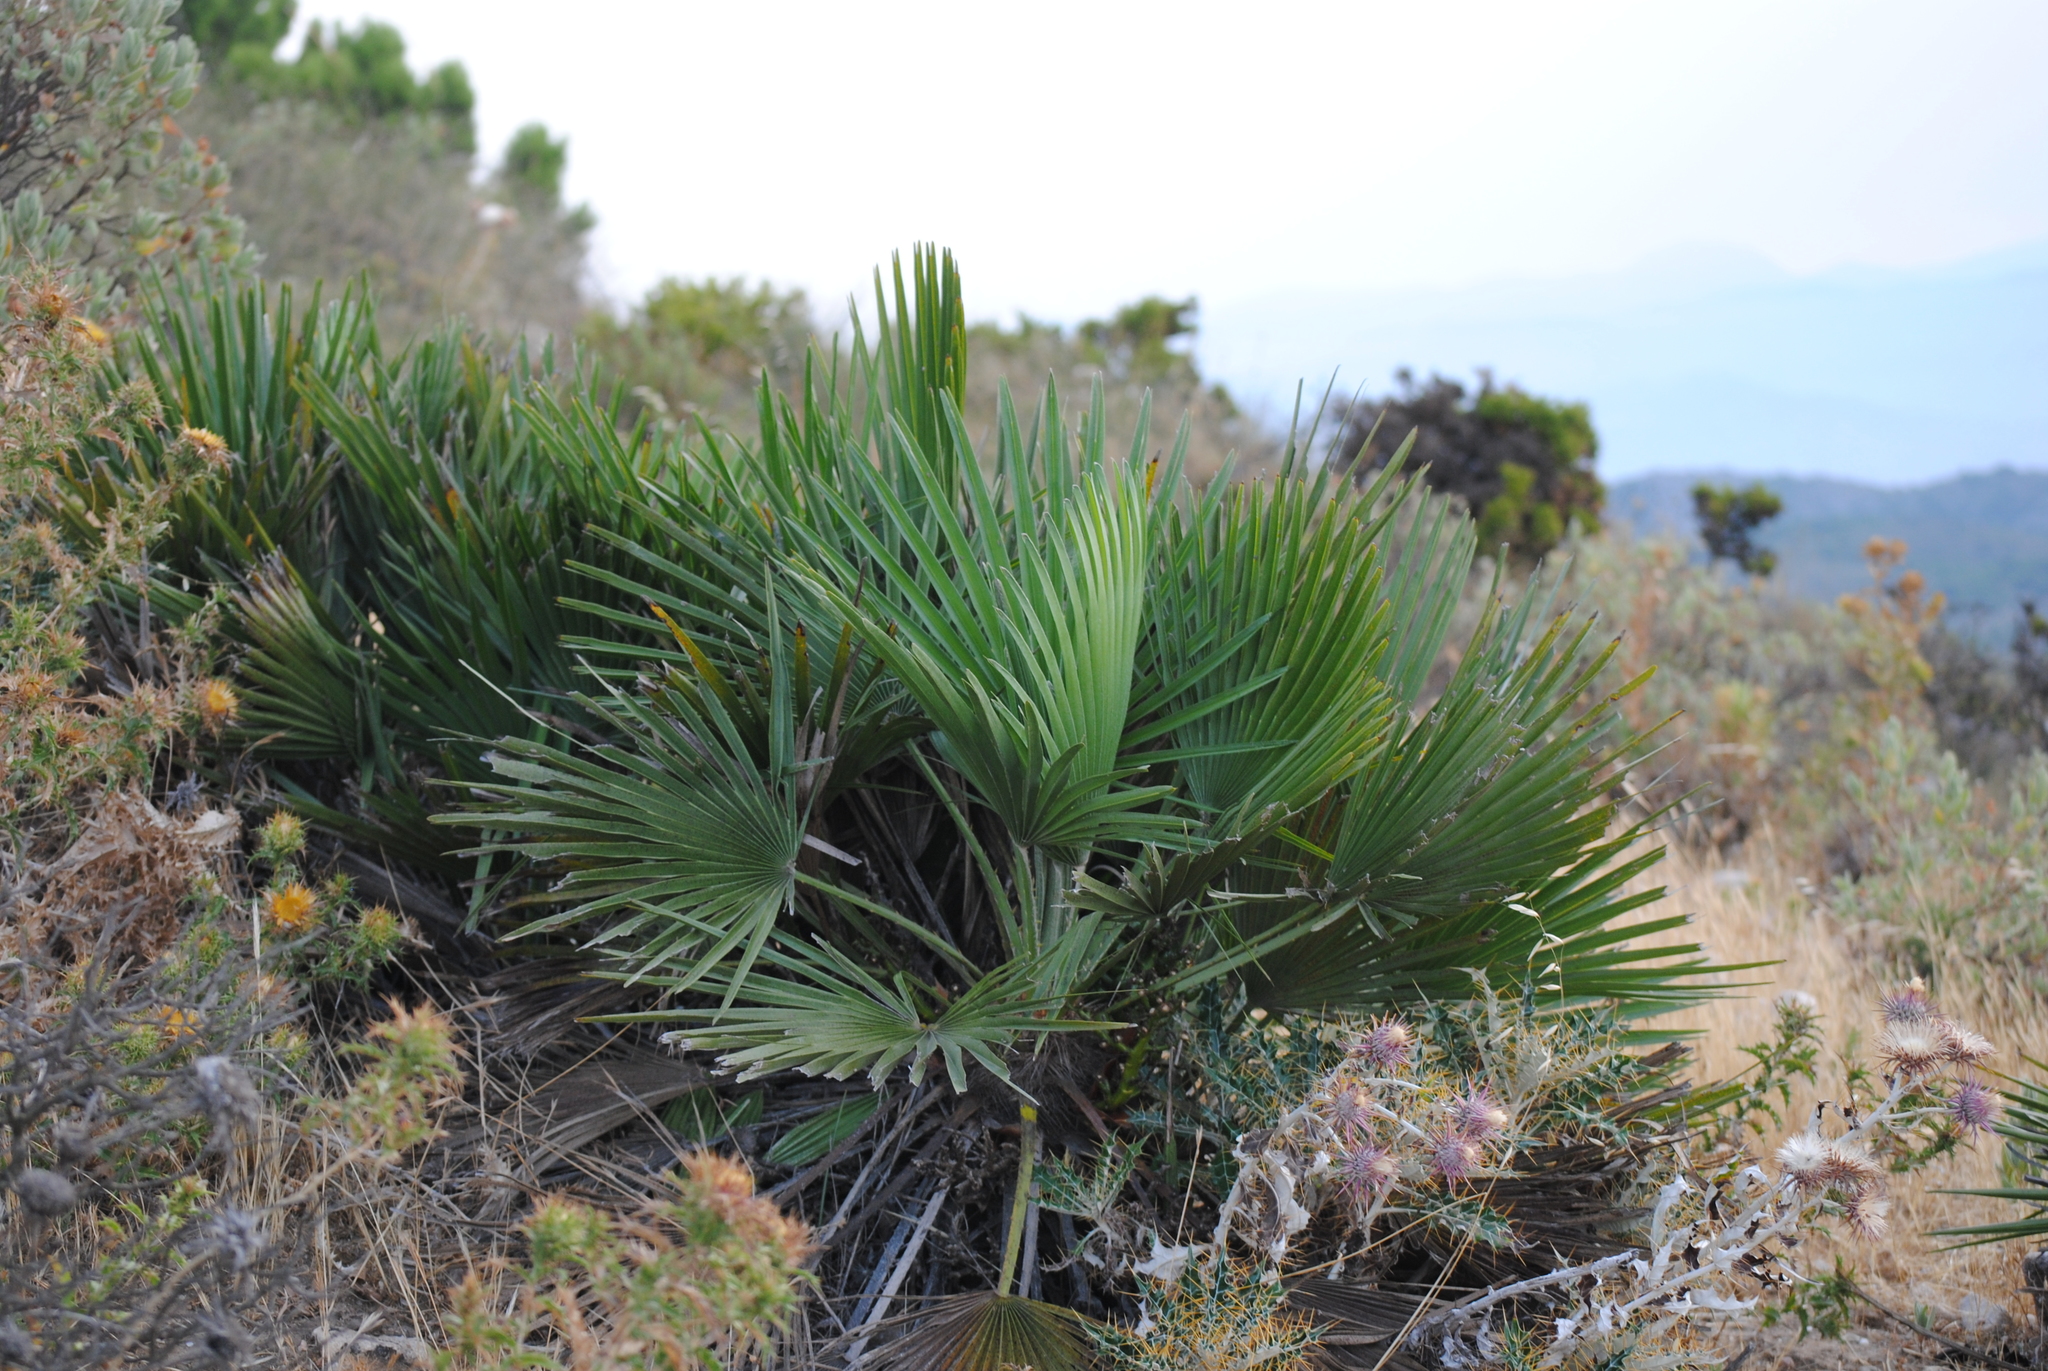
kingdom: Plantae
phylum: Tracheophyta
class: Liliopsida
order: Arecales
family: Arecaceae
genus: Chamaerops
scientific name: Chamaerops humilis
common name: Dwarf fan palm
